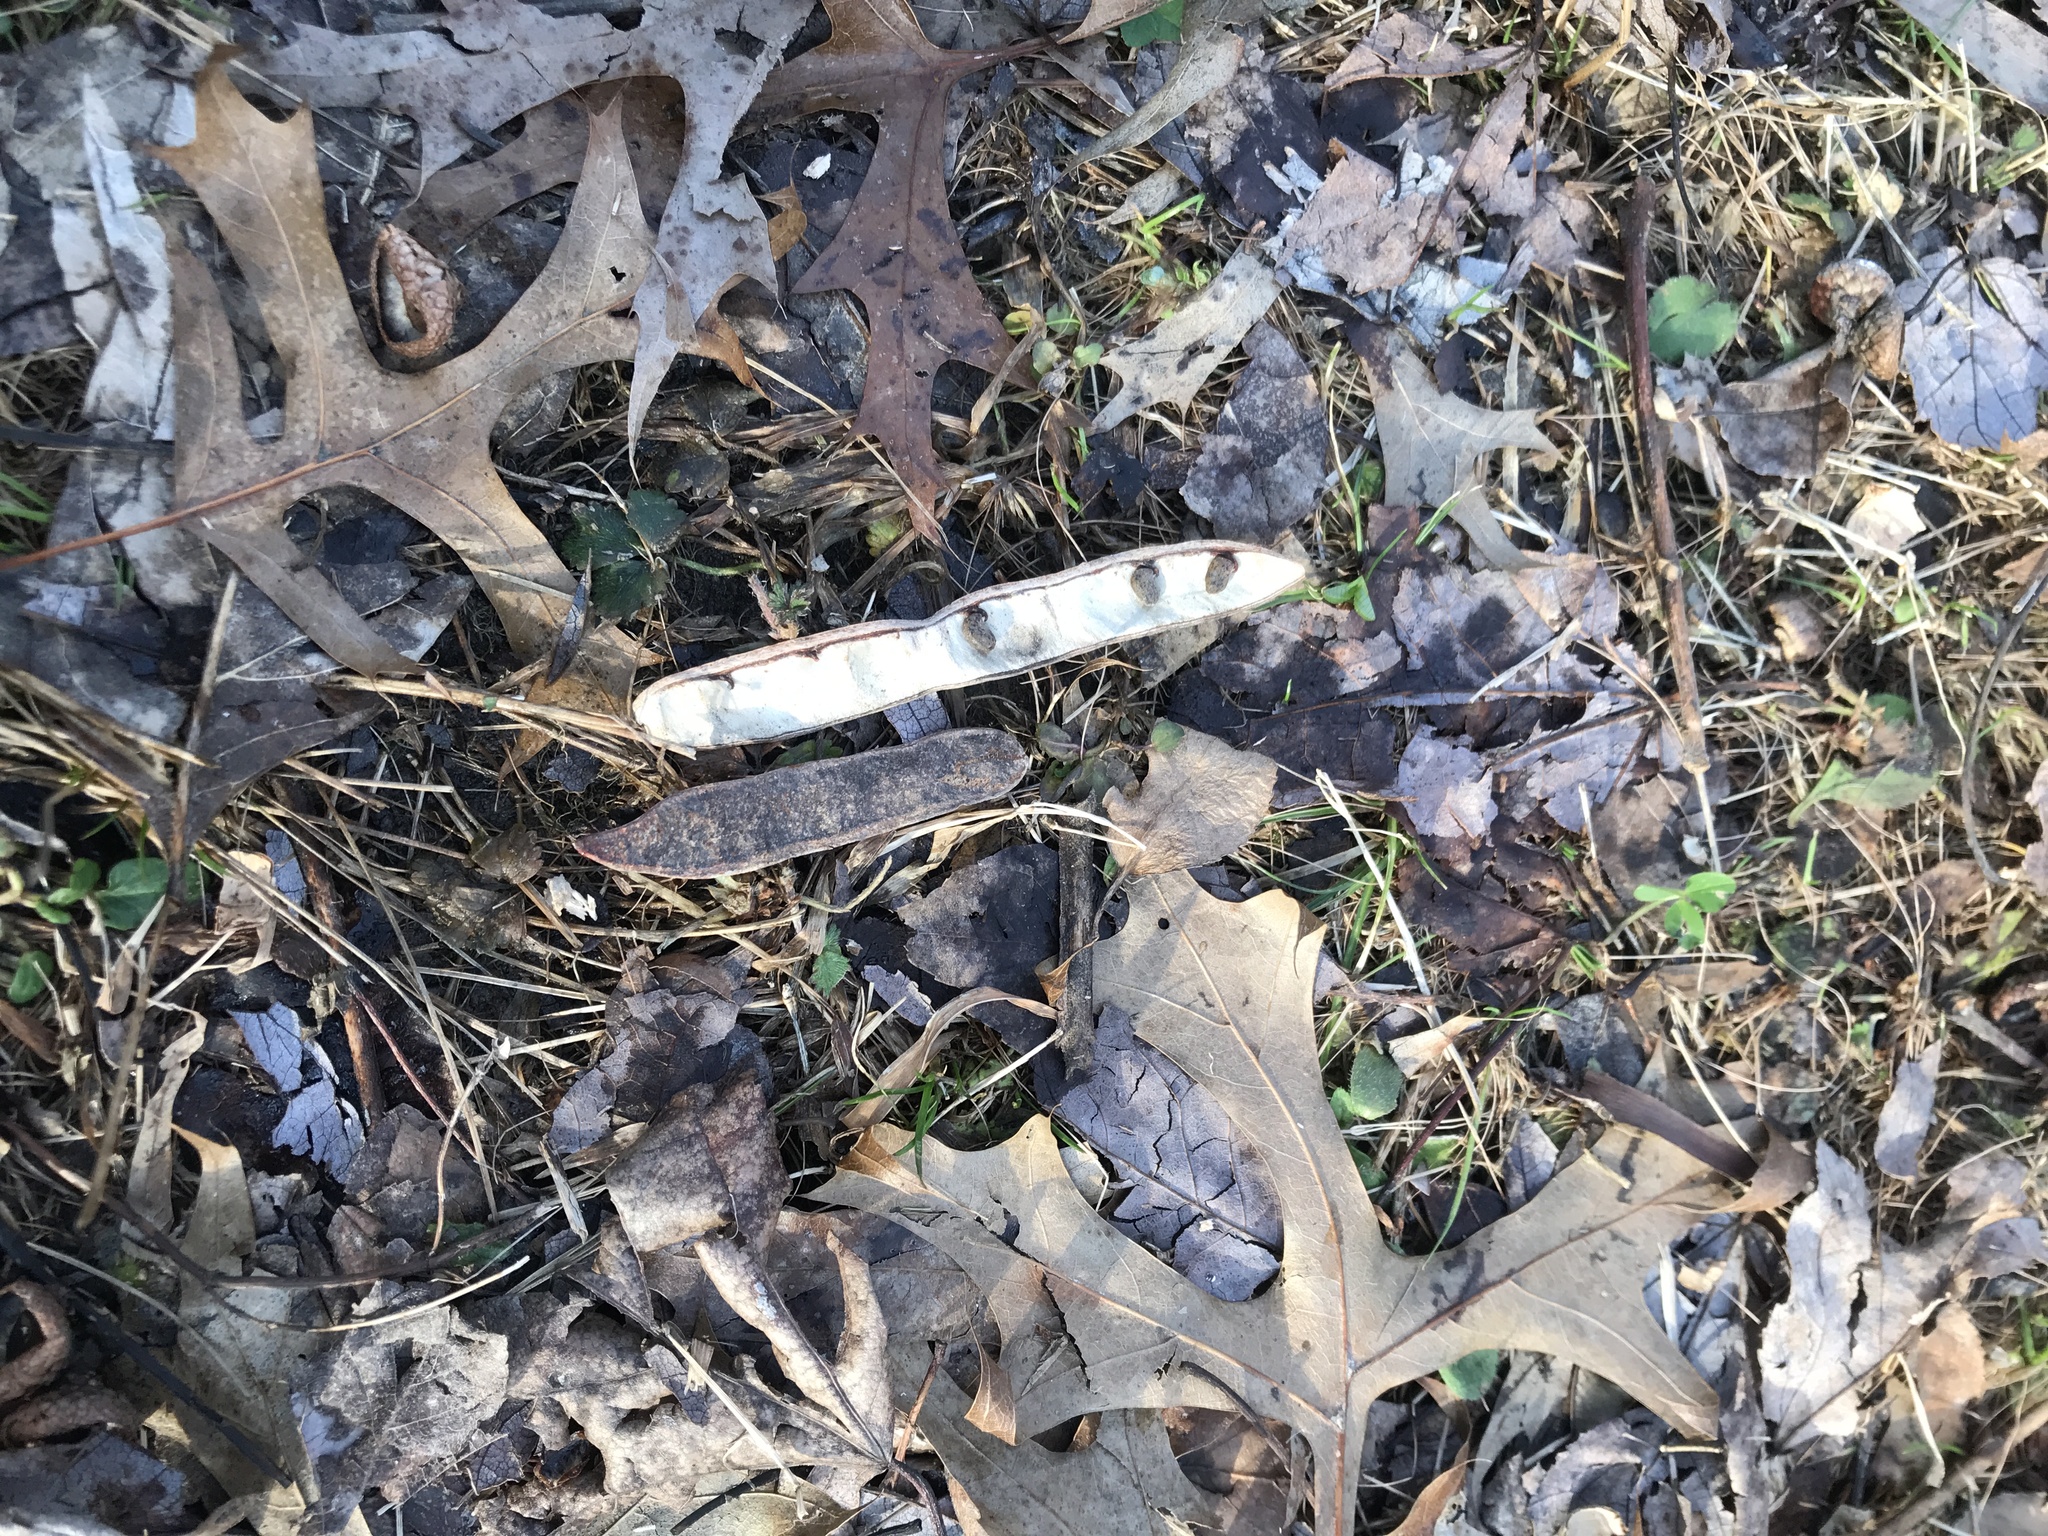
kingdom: Plantae
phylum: Tracheophyta
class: Magnoliopsida
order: Fabales
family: Fabaceae
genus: Robinia
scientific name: Robinia pseudoacacia
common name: Black locust
